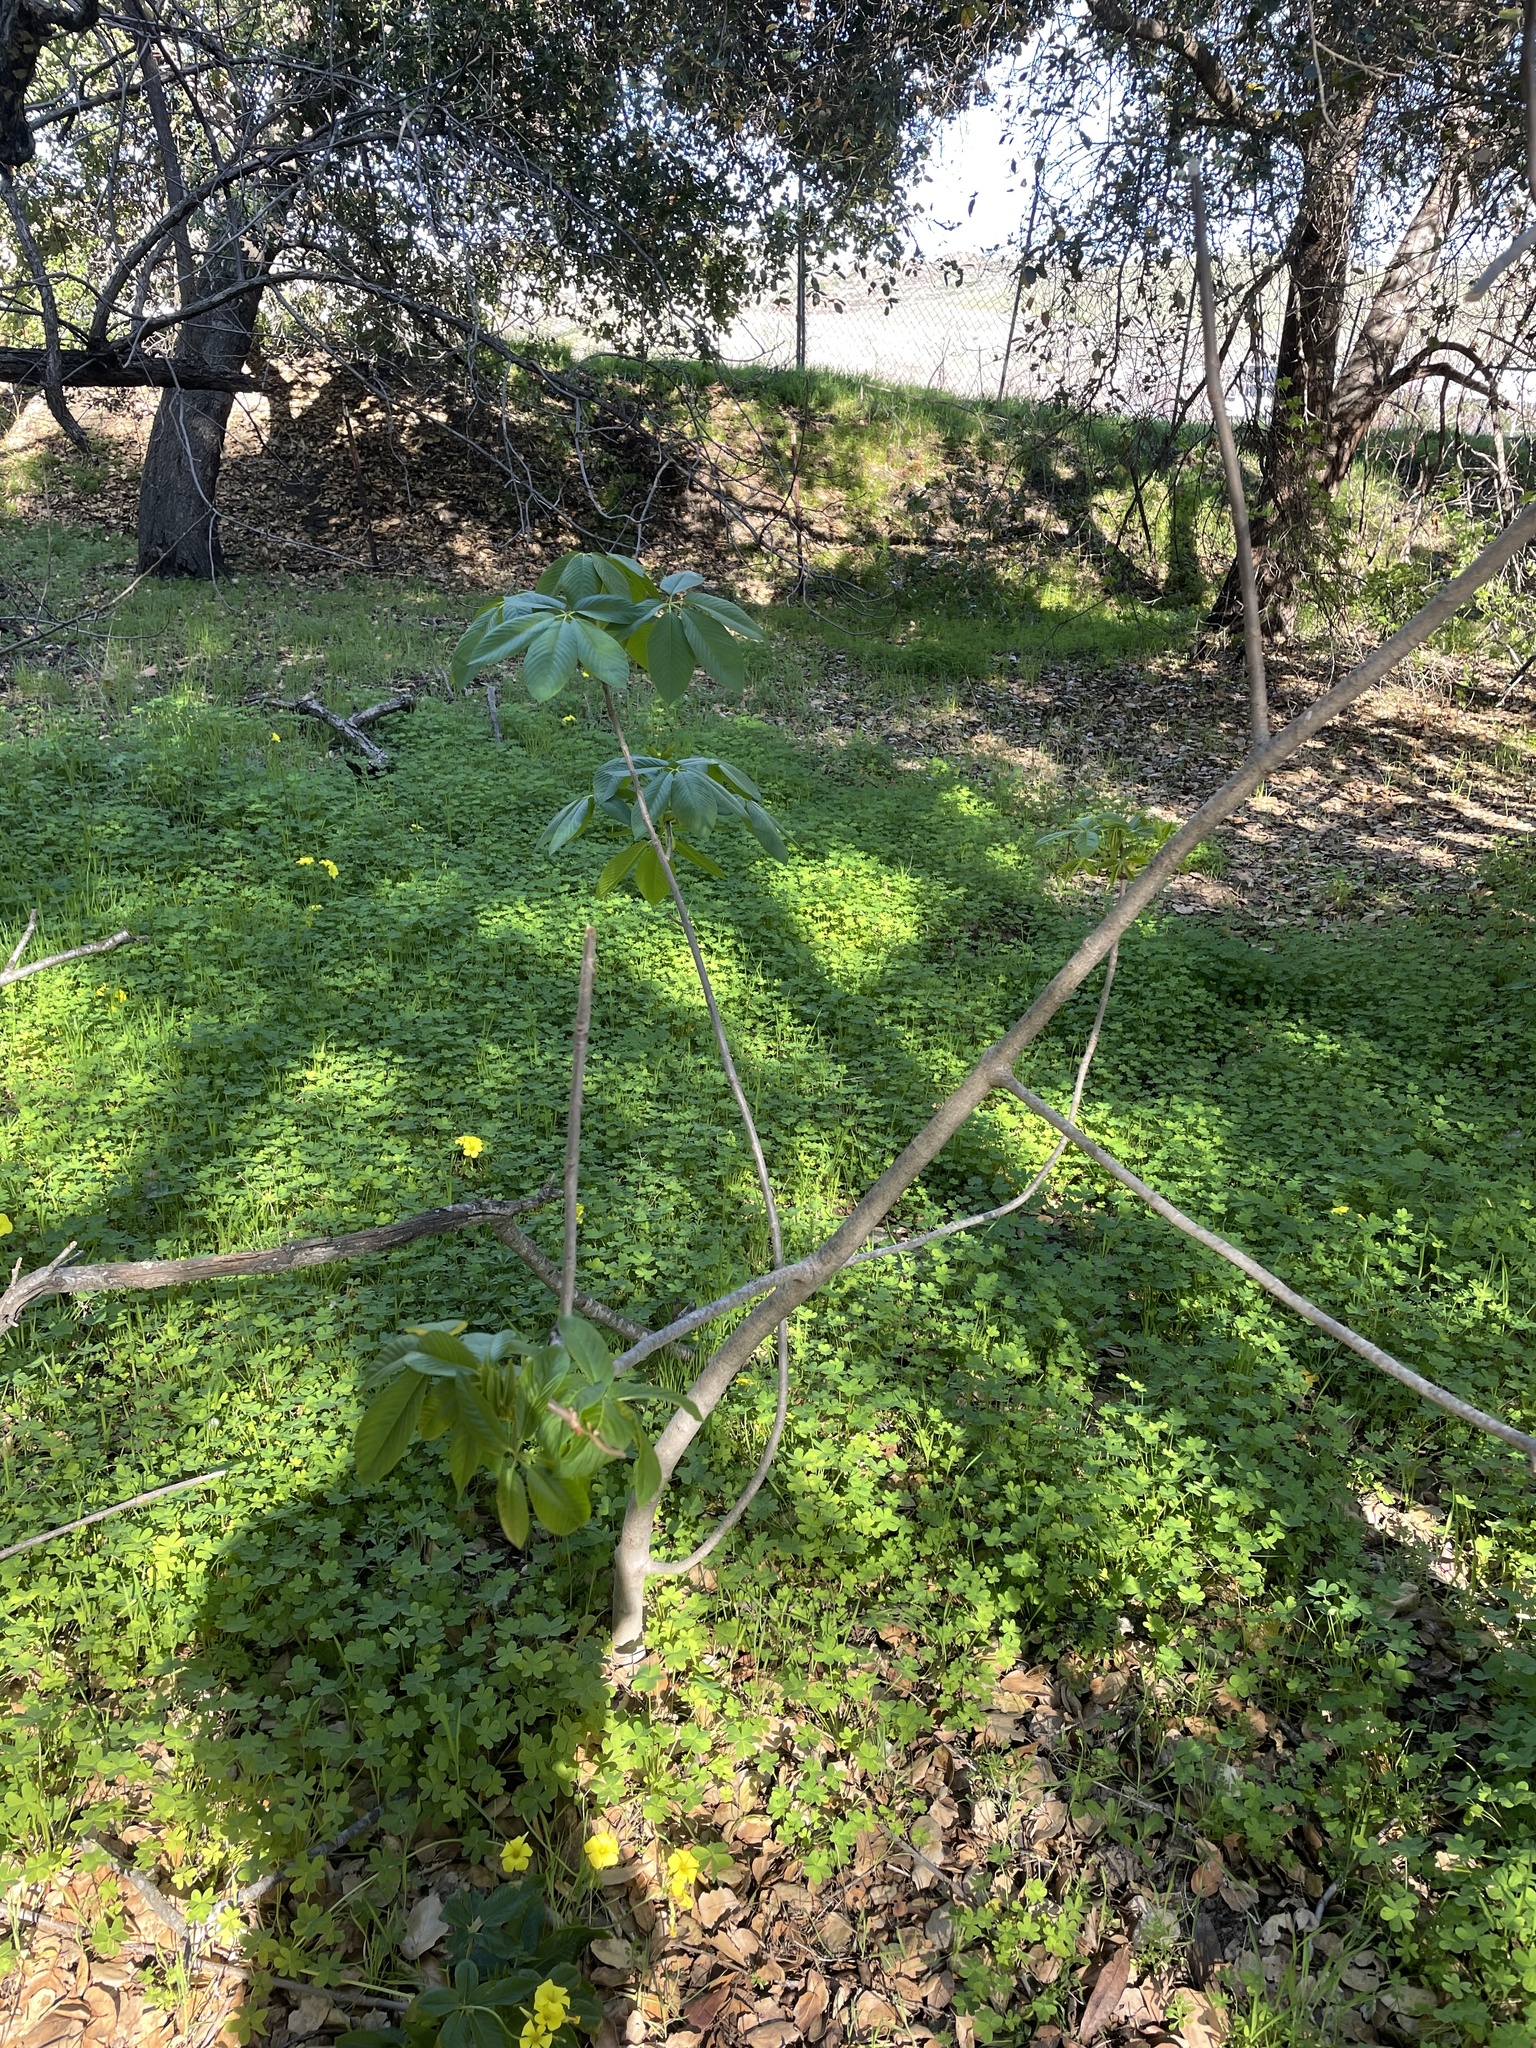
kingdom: Plantae
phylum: Tracheophyta
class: Magnoliopsida
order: Sapindales
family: Sapindaceae
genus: Aesculus
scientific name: Aesculus californica
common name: California buckeye
